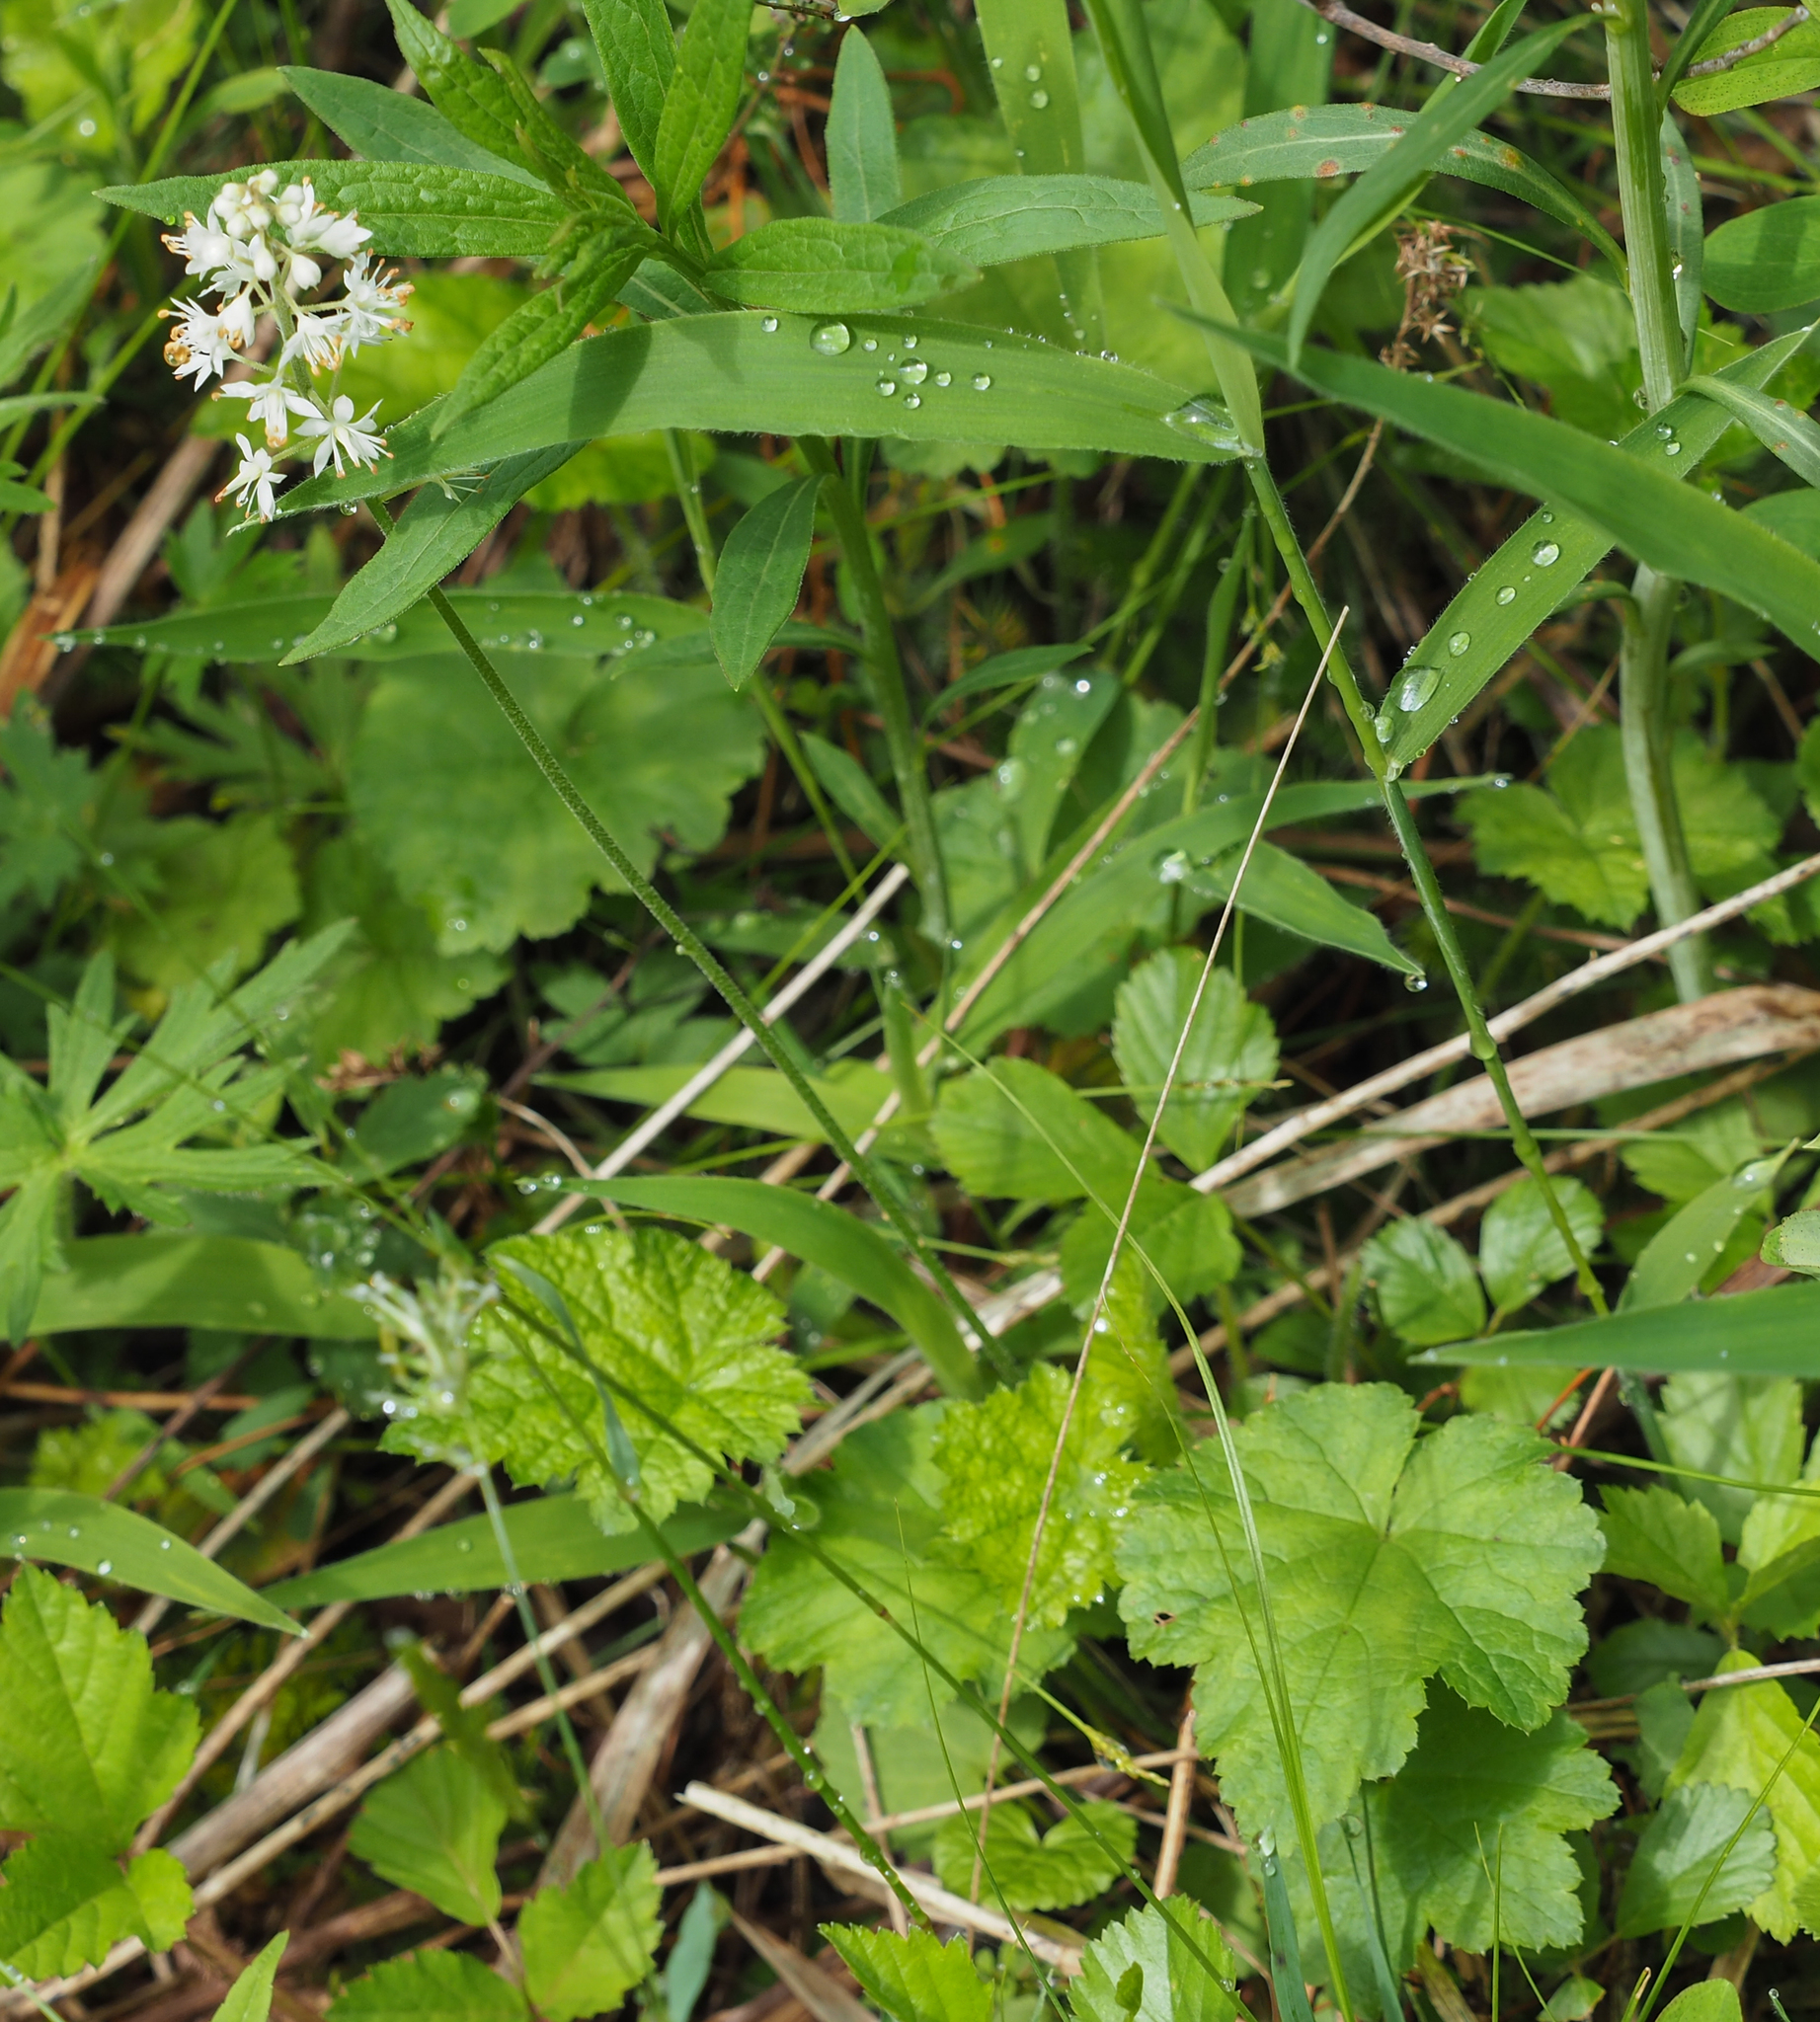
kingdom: Plantae
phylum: Tracheophyta
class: Magnoliopsida
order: Saxifragales
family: Saxifragaceae
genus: Tiarella
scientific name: Tiarella stolonifera
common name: Stoloniferous foamflower
